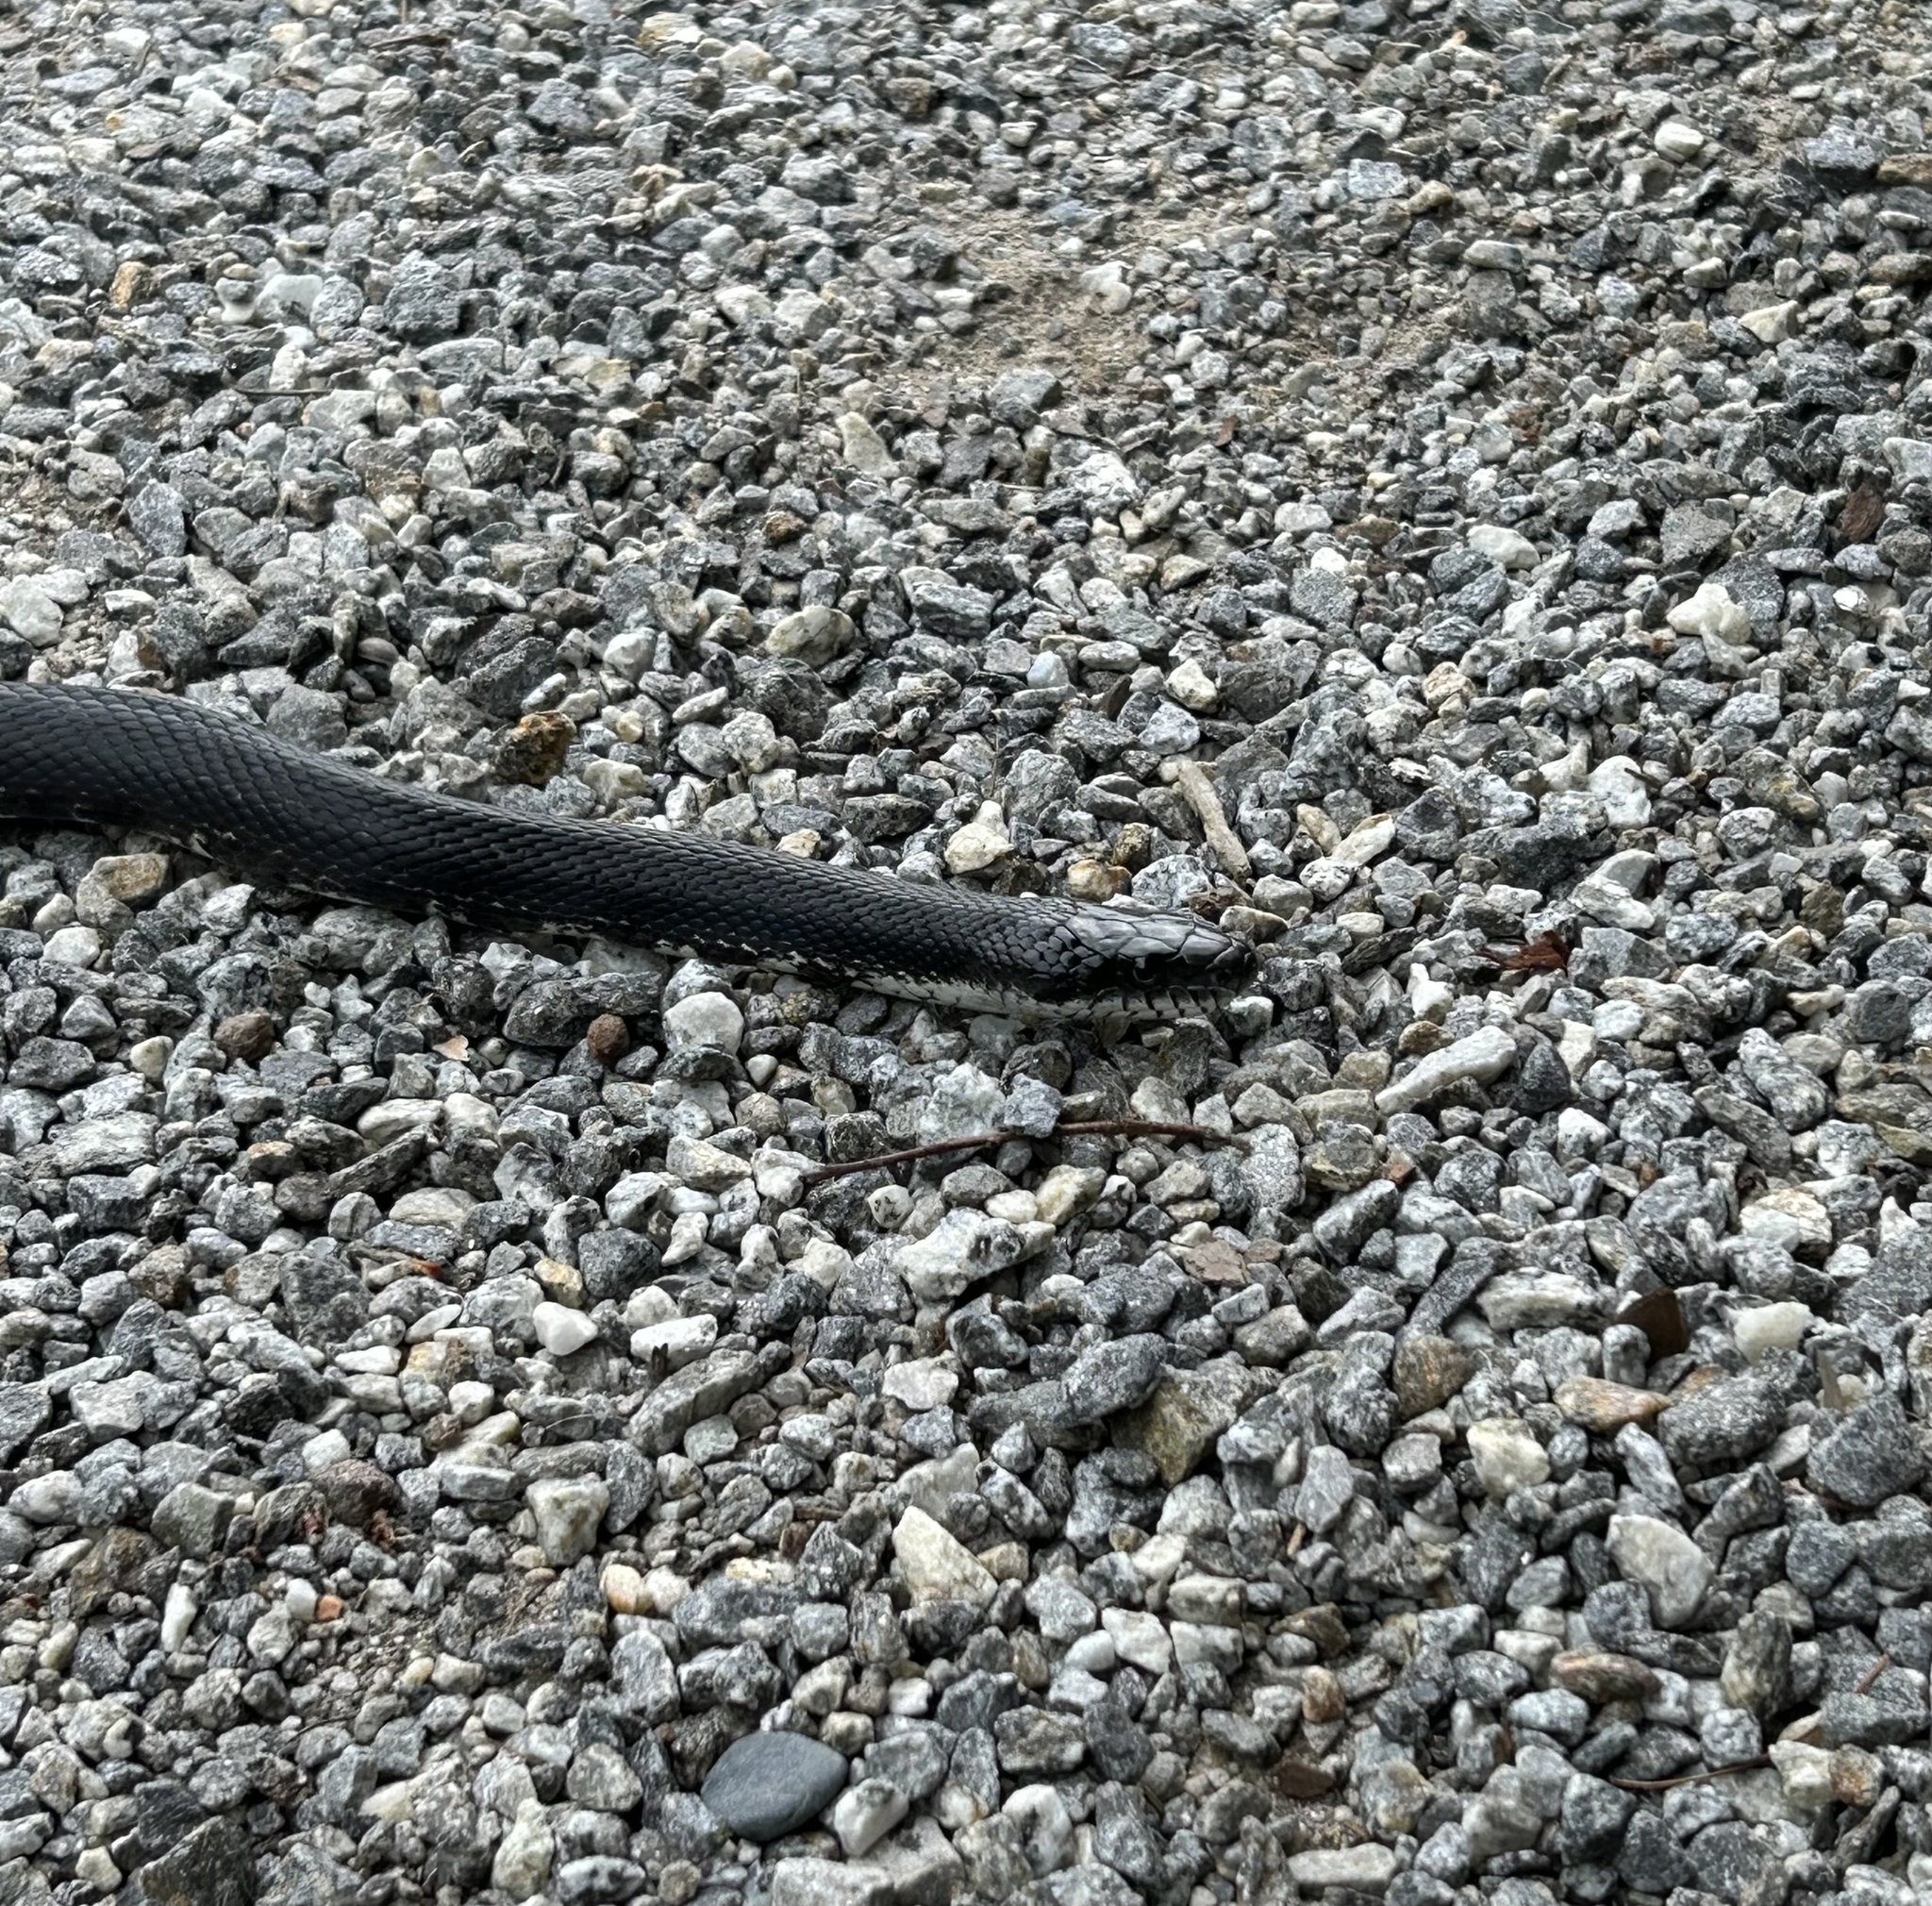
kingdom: Animalia
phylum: Chordata
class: Squamata
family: Colubridae
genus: Pantherophis
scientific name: Pantherophis
